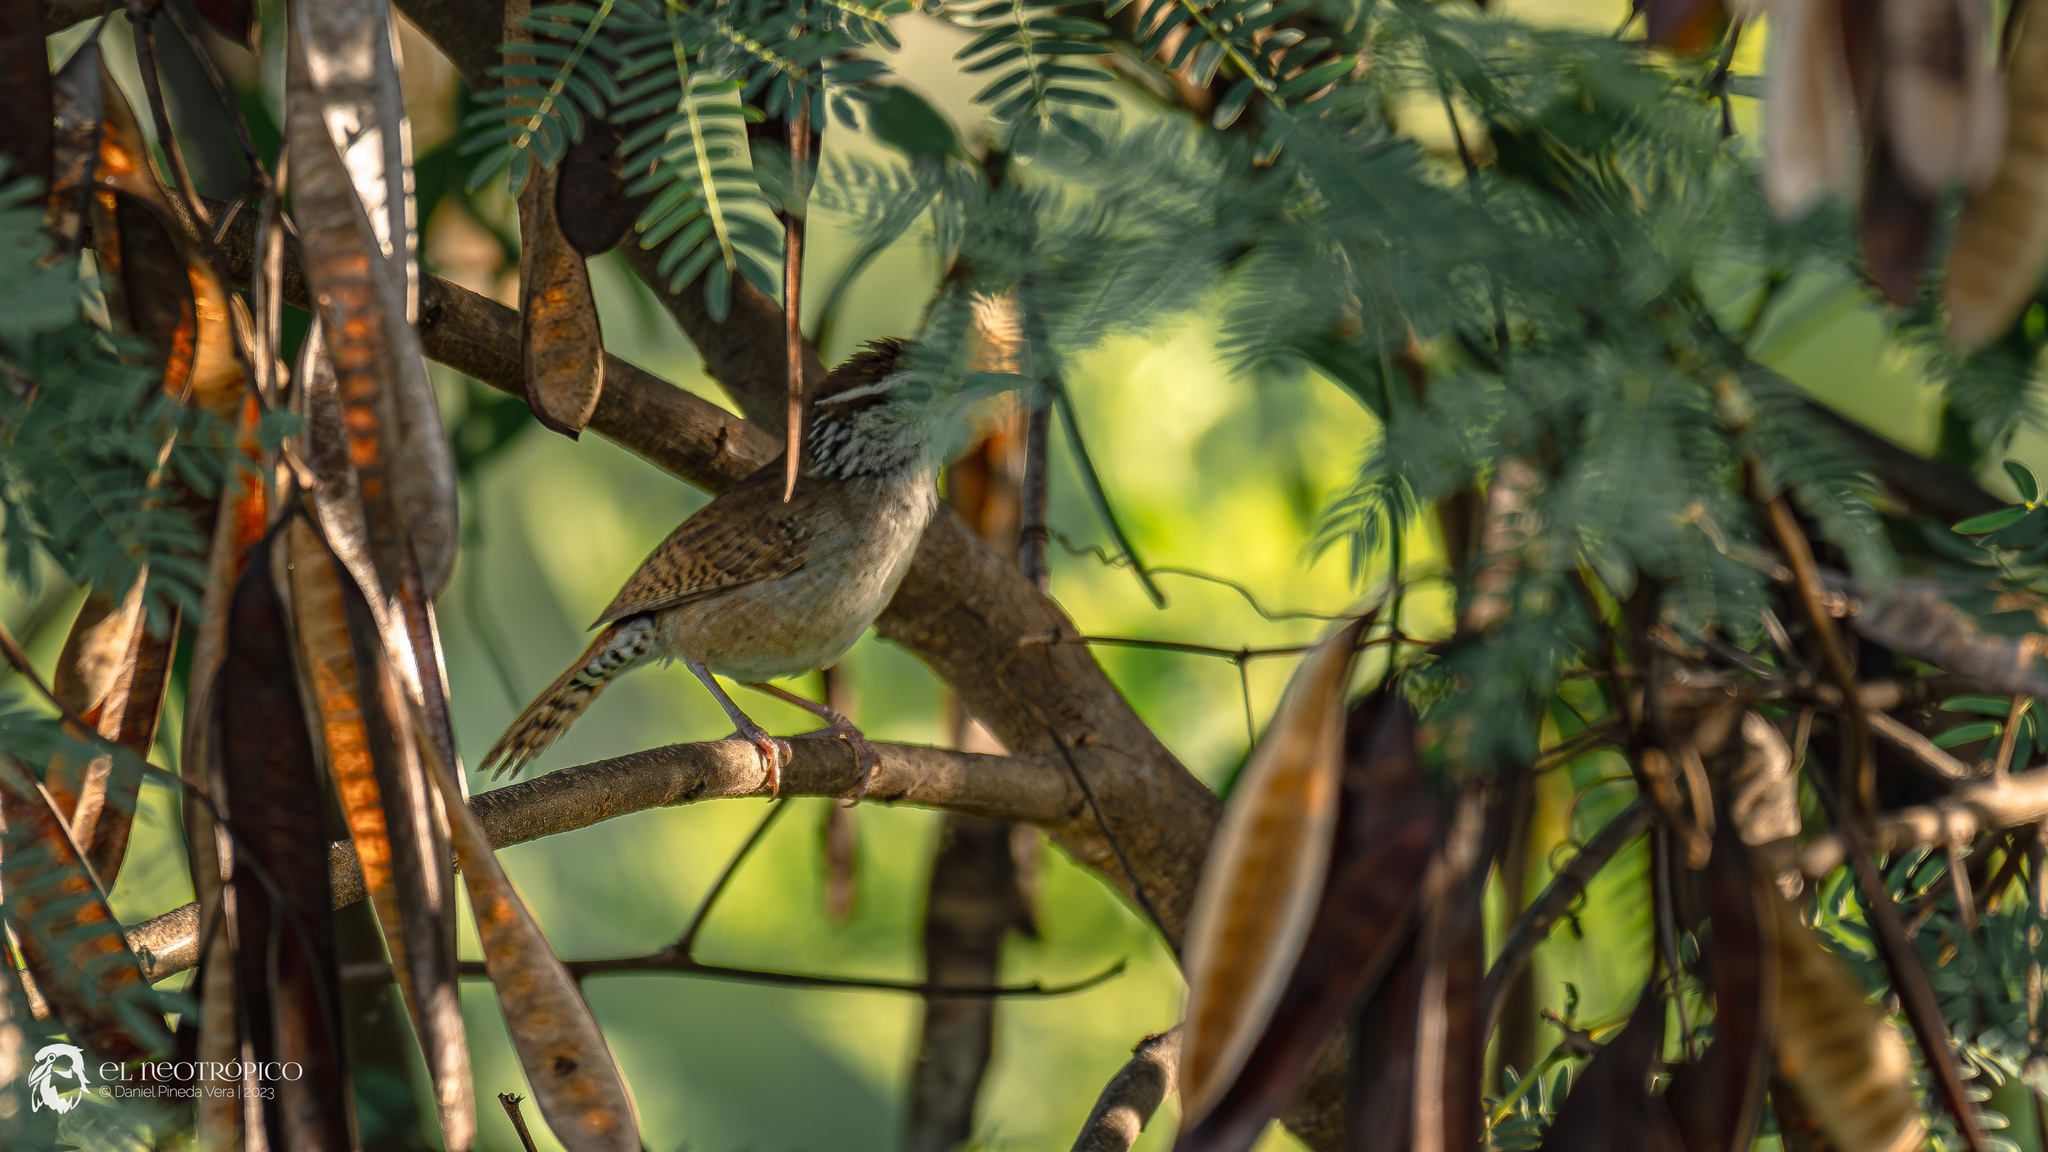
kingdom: Animalia
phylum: Chordata
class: Aves
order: Passeriformes
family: Troglodytidae
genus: Thryophilus
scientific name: Thryophilus sinaloa
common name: Sinaloa wren
